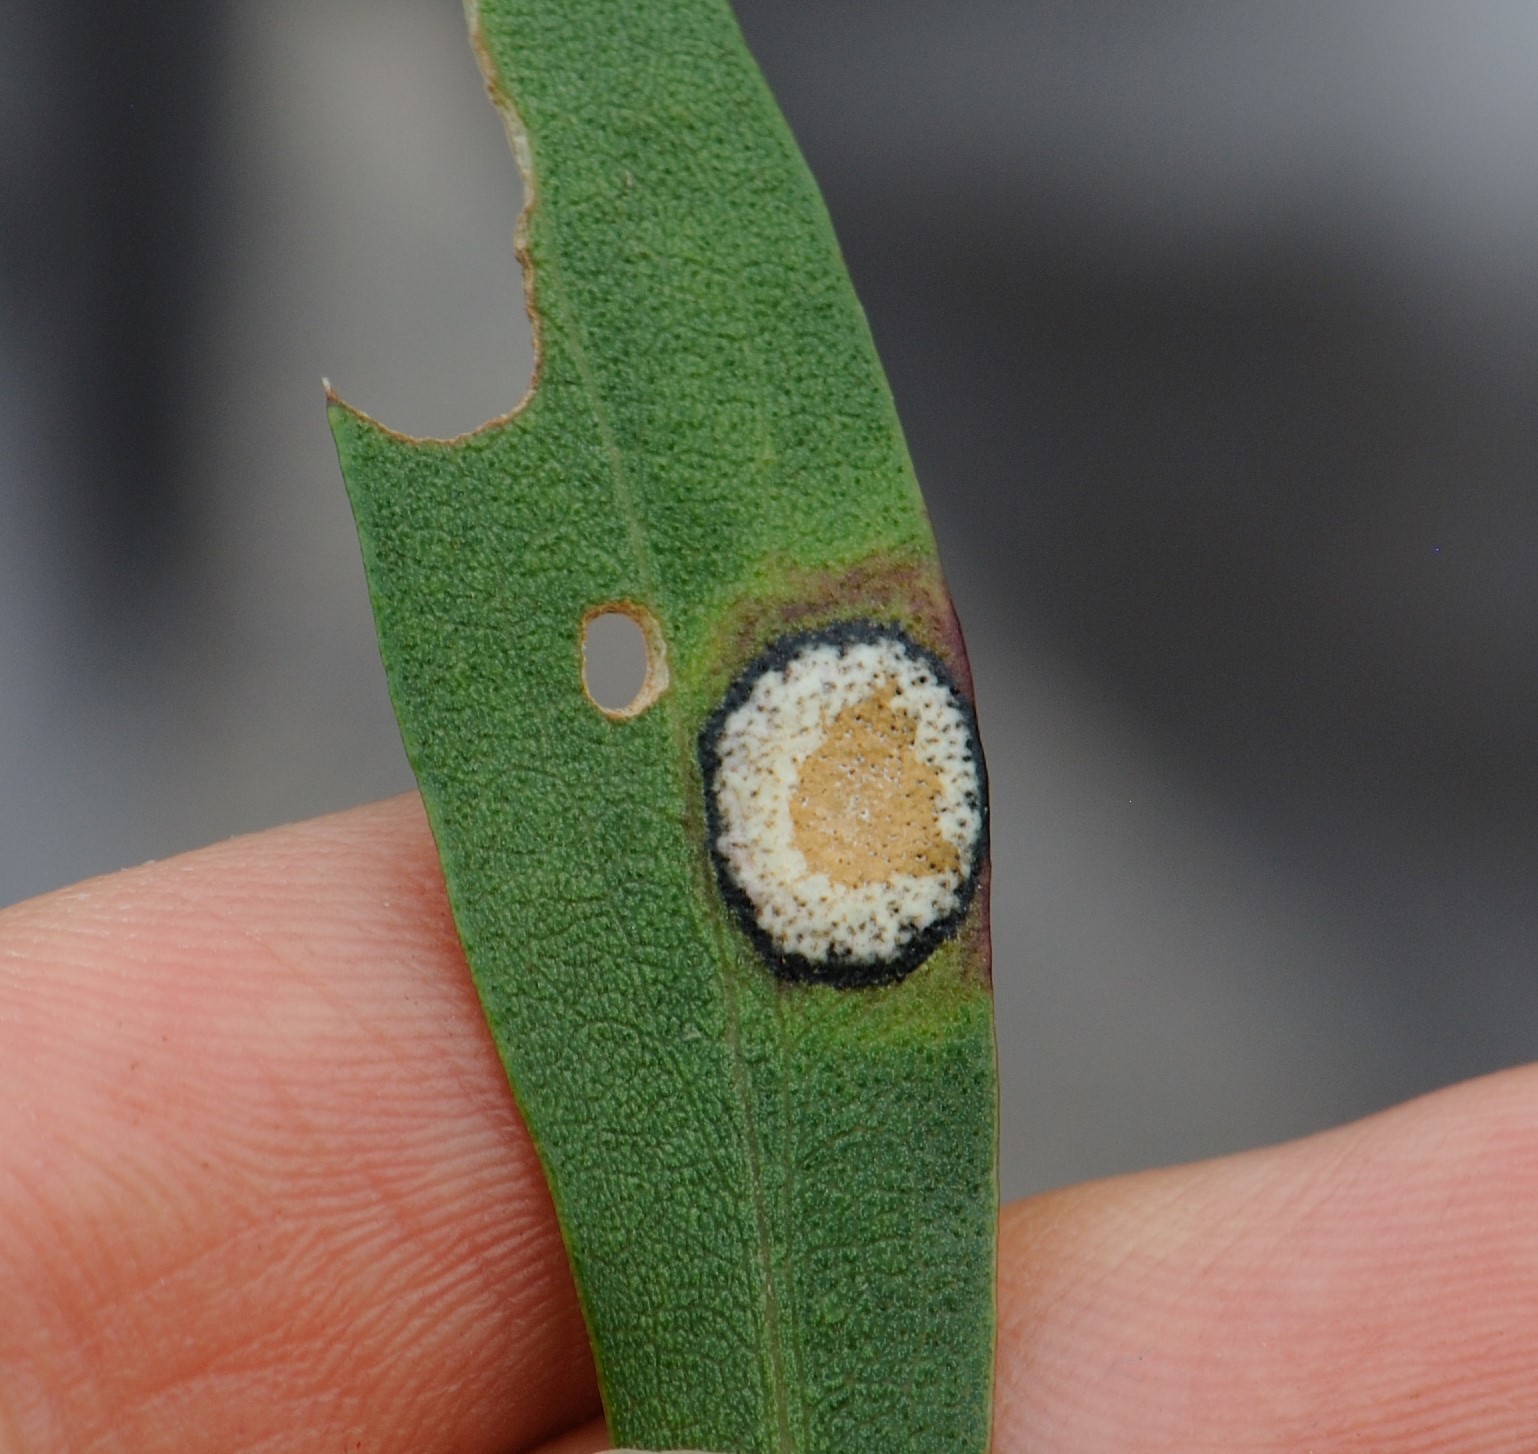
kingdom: Animalia
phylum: Arthropoda
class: Insecta
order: Diptera
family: Cecidomyiidae
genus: Asteromyia
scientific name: Asteromyia carbonifera
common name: Carbonifera goldenrod gall midge
